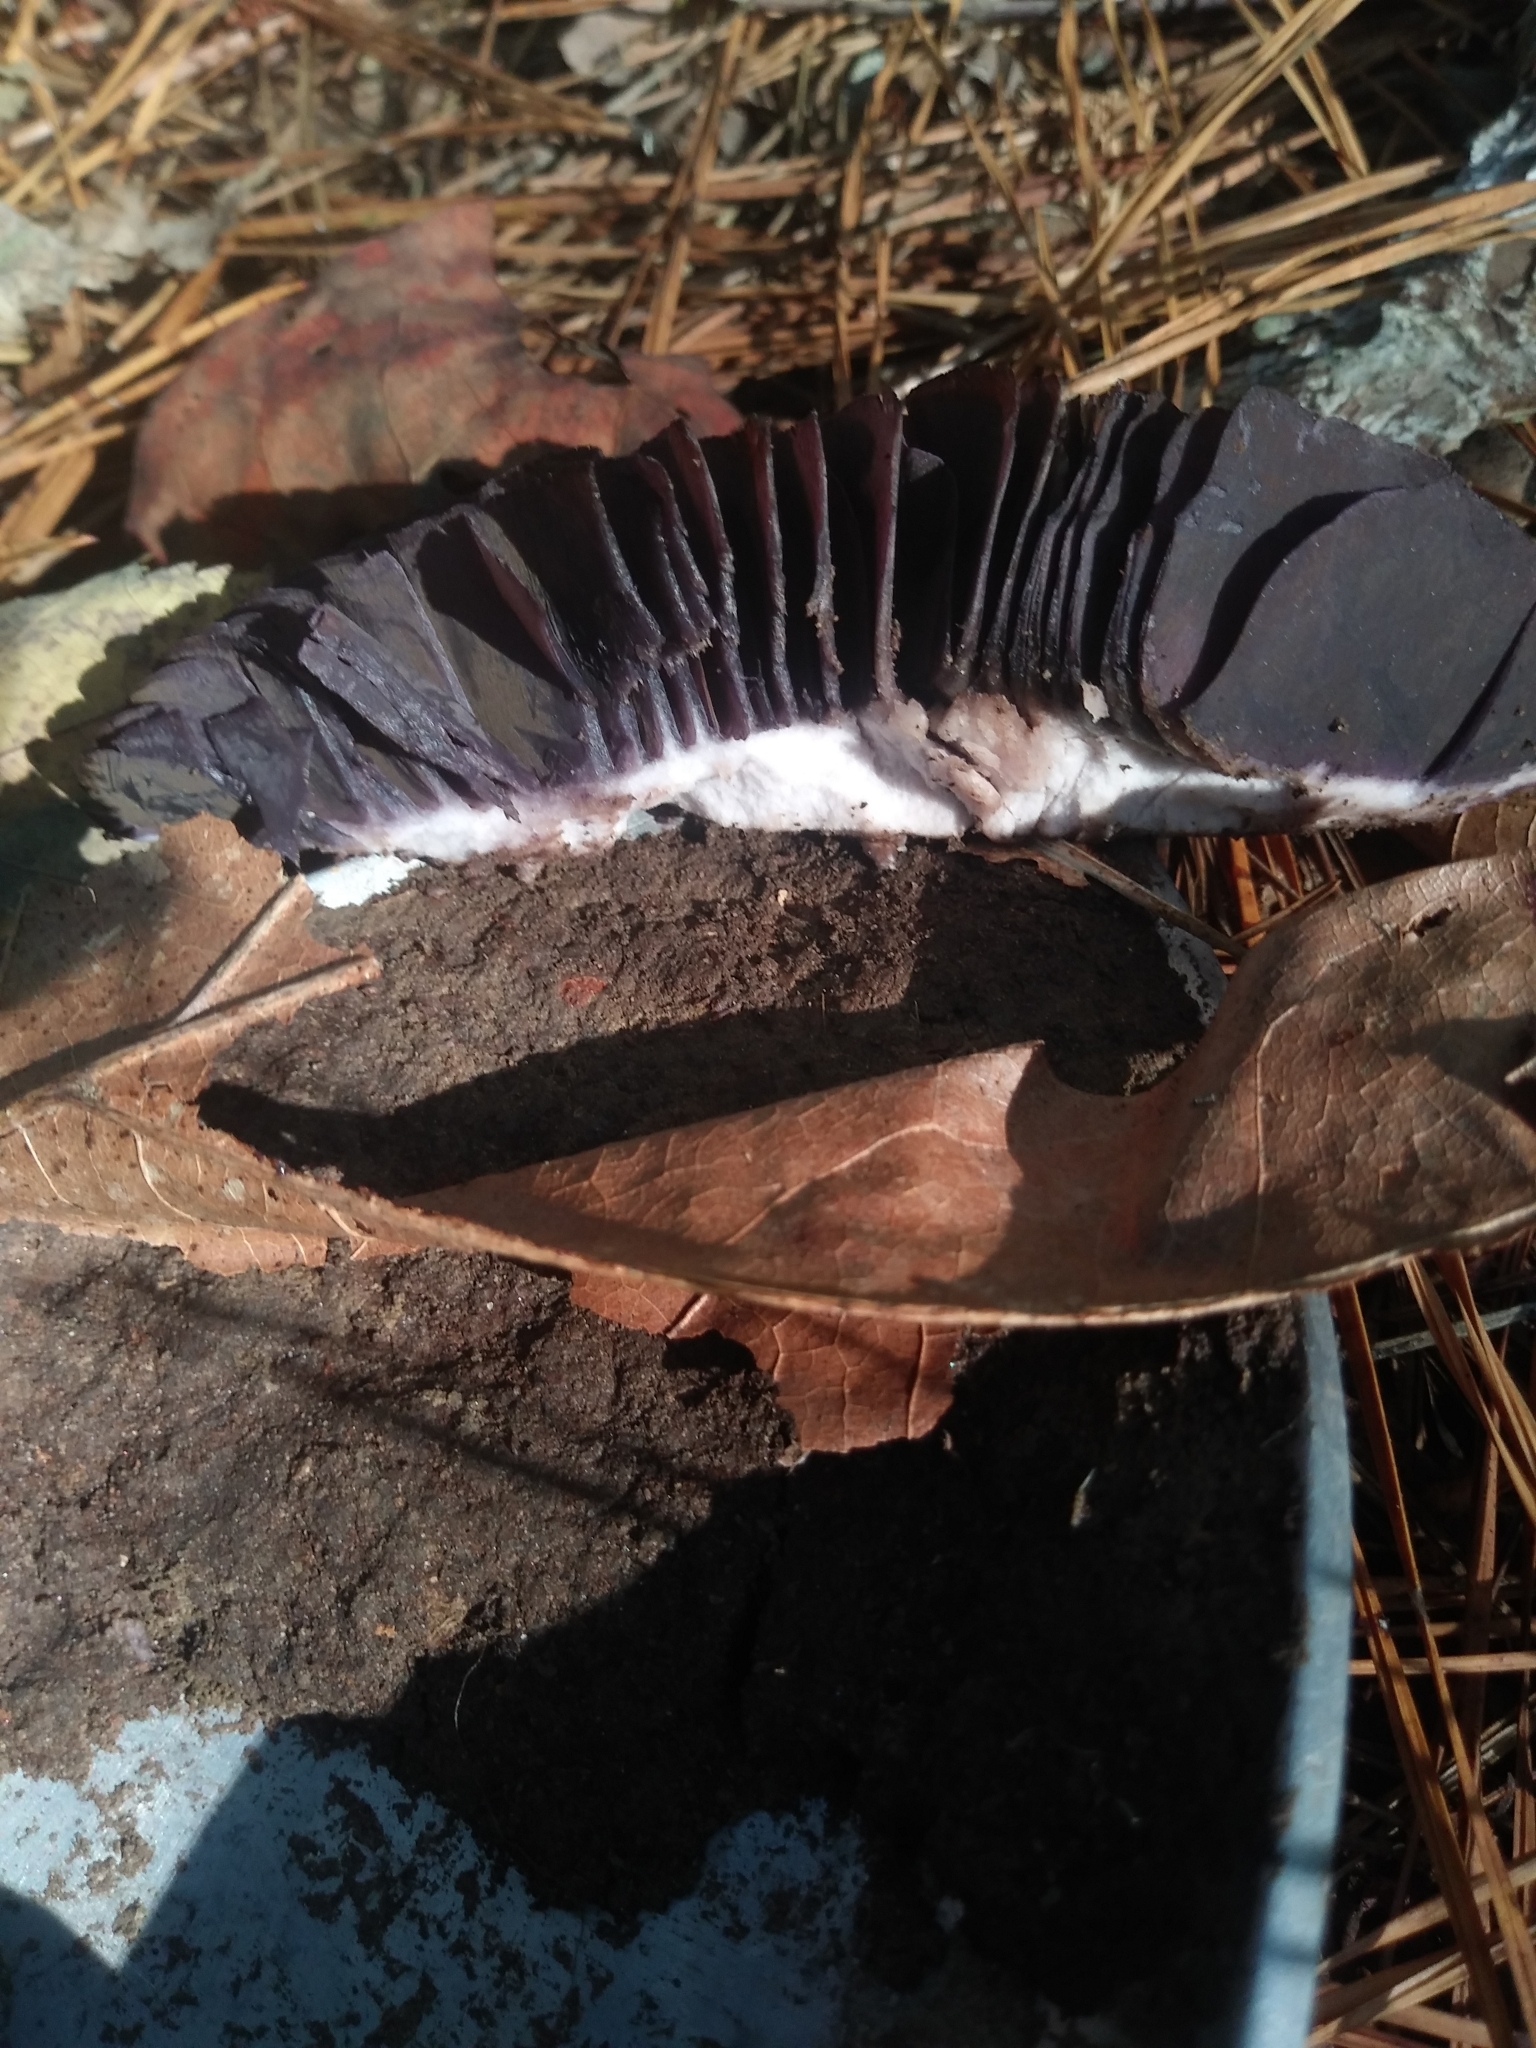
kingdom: Fungi
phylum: Basidiomycota
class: Agaricomycetes
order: Agaricales
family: Cortinariaceae
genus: Cortinarius
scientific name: Cortinarius violaceus
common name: Violet webcap
